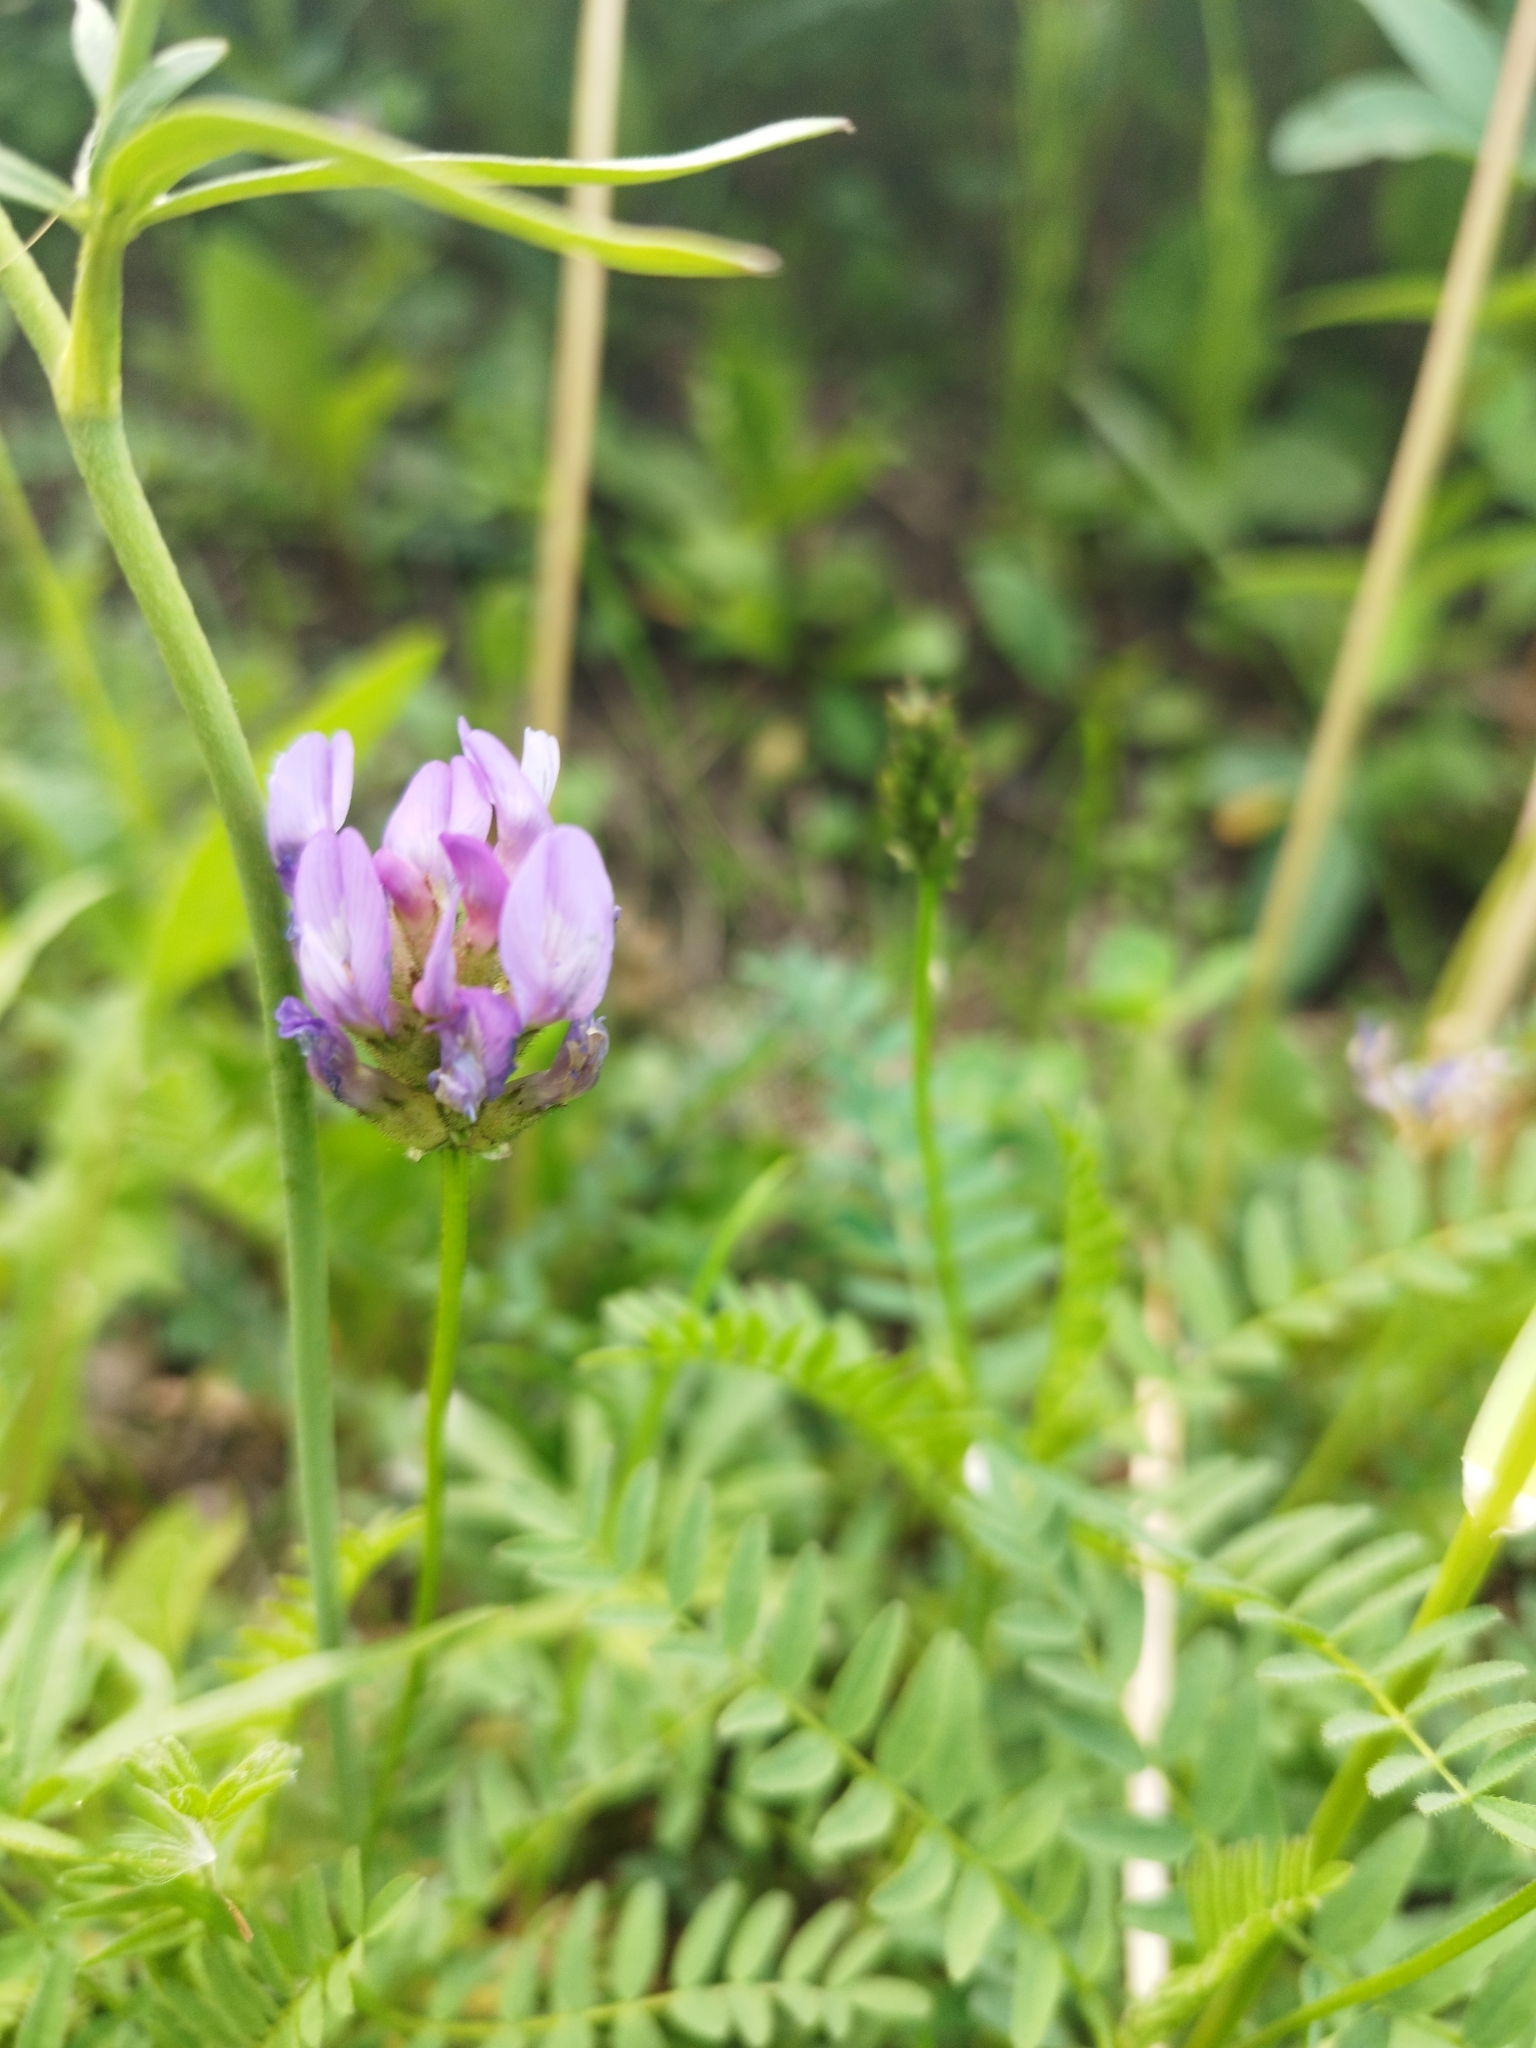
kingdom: Plantae
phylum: Tracheophyta
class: Magnoliopsida
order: Fabales
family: Fabaceae
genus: Astragalus
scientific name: Astragalus danicus
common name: Purple milk-vetch
